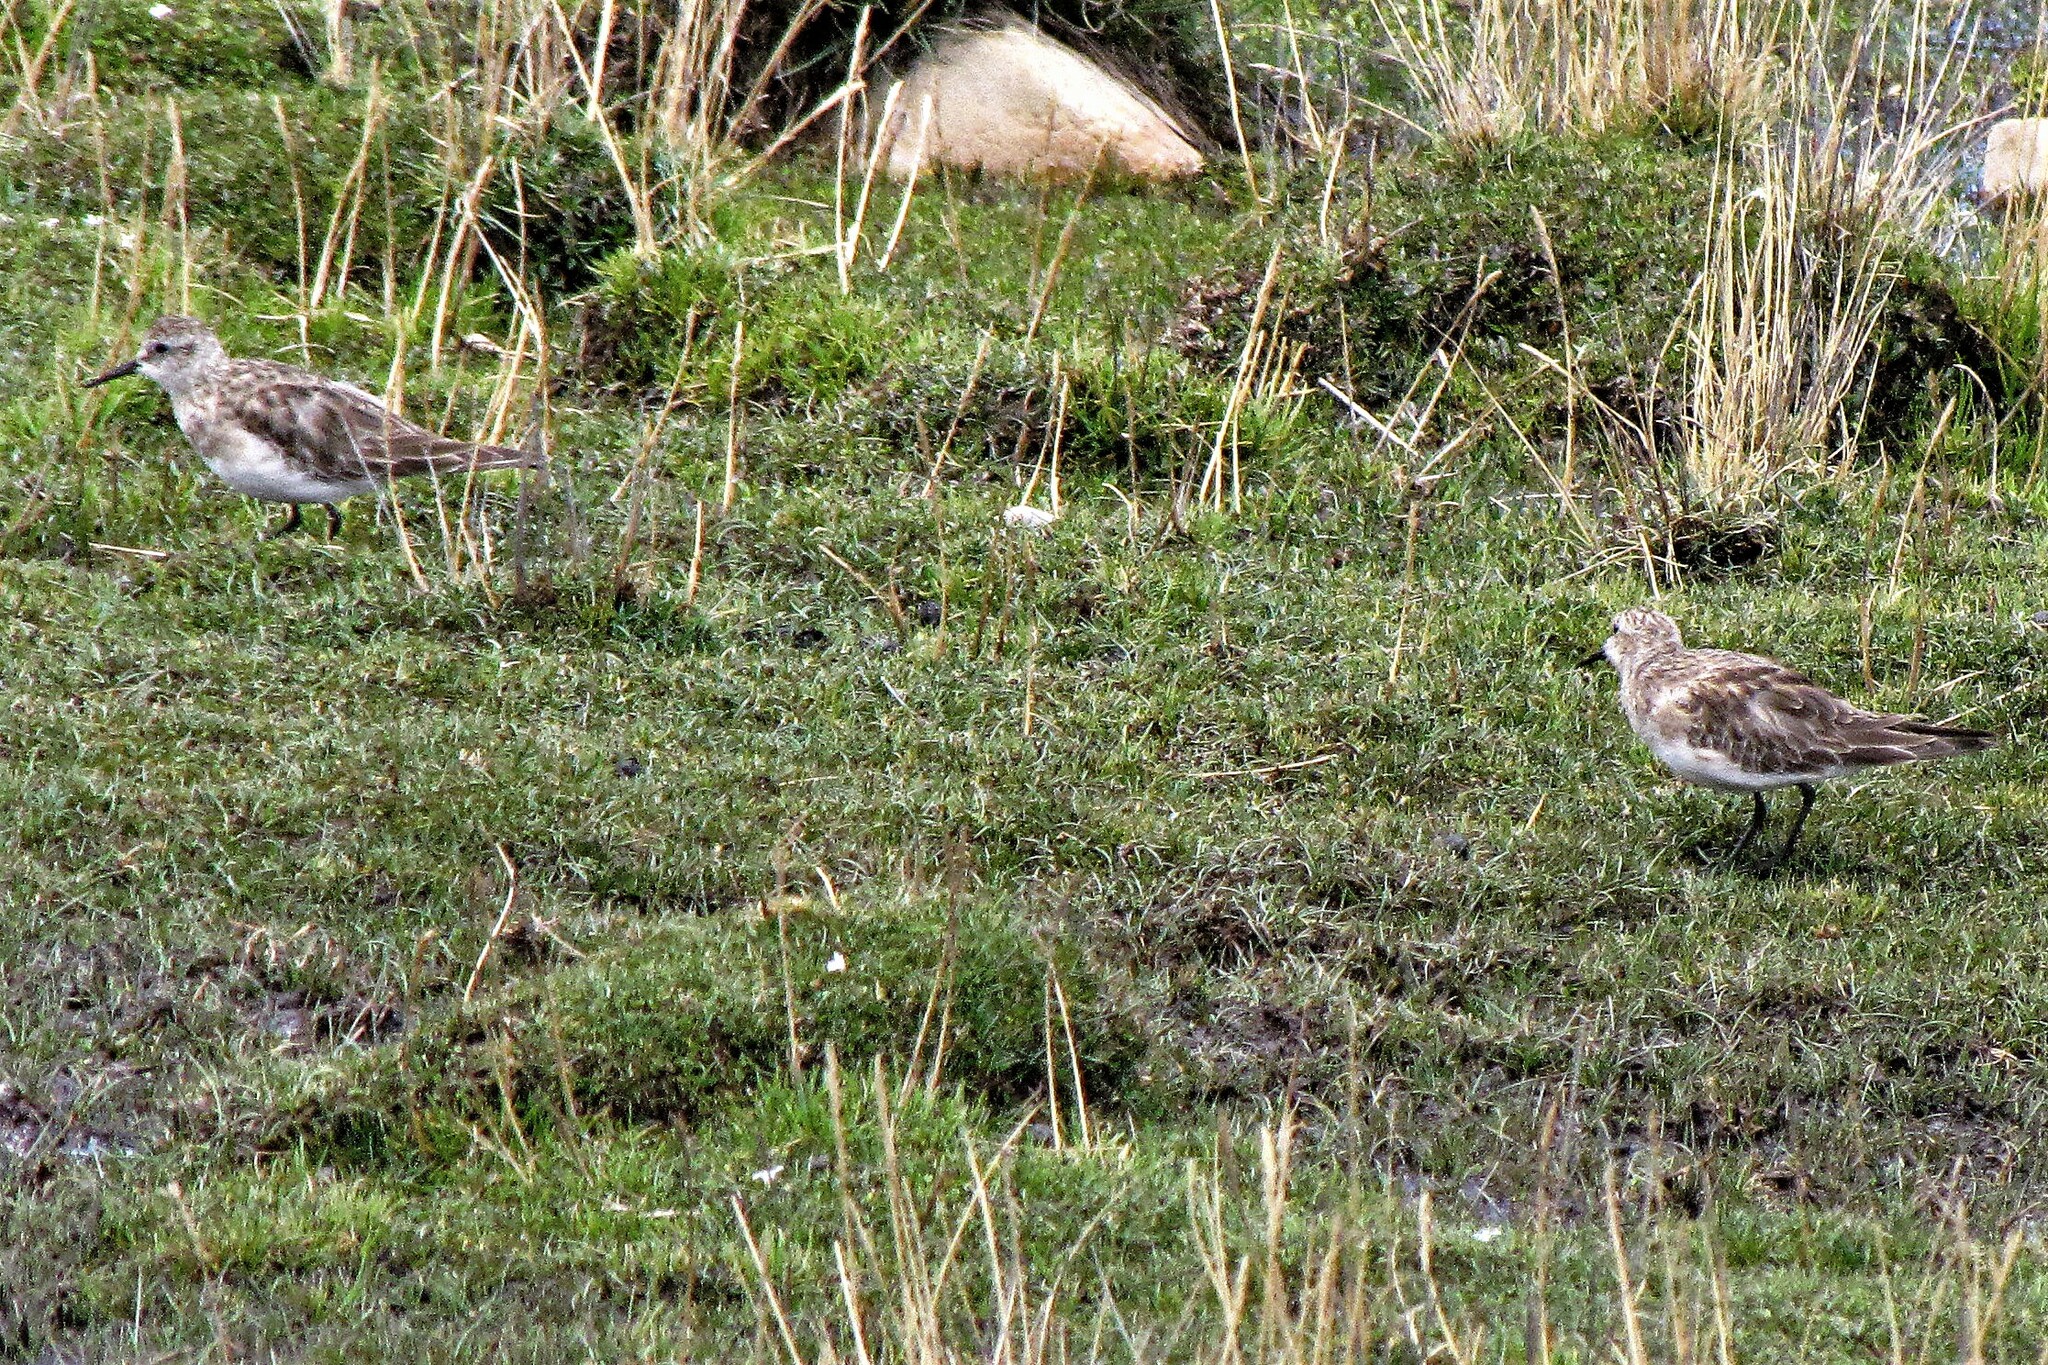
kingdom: Animalia
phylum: Chordata
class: Aves
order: Charadriiformes
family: Scolopacidae
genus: Calidris
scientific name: Calidris bairdii
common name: Baird's sandpiper
